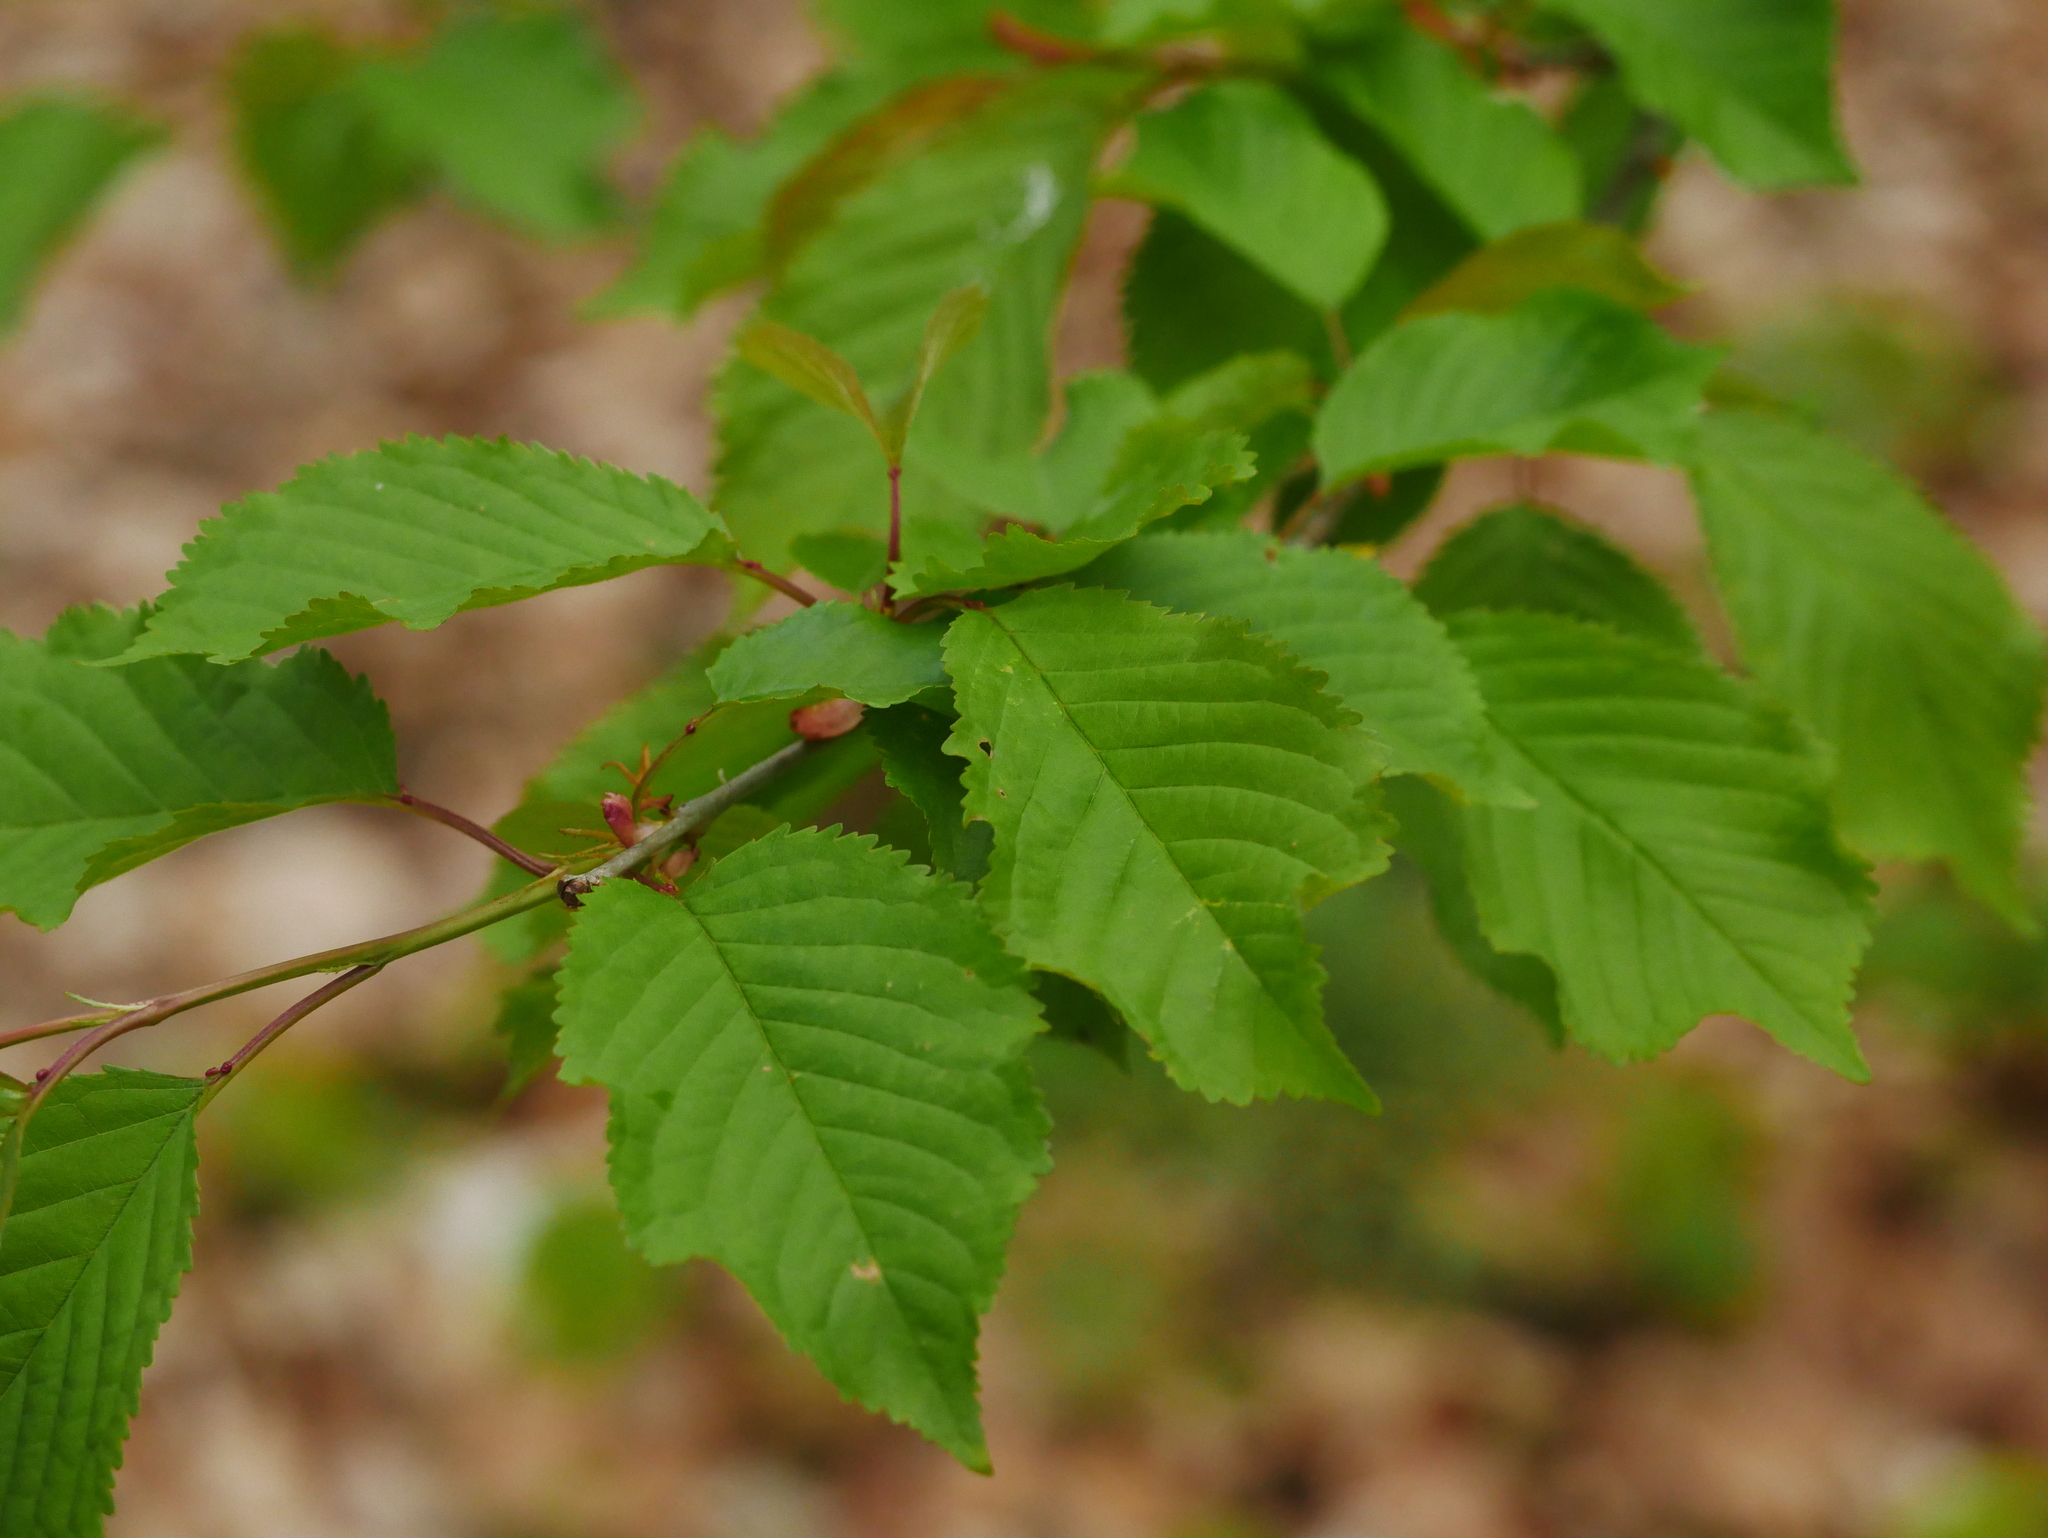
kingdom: Plantae
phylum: Tracheophyta
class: Magnoliopsida
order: Rosales
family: Rosaceae
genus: Prunus
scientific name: Prunus avium
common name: Sweet cherry
